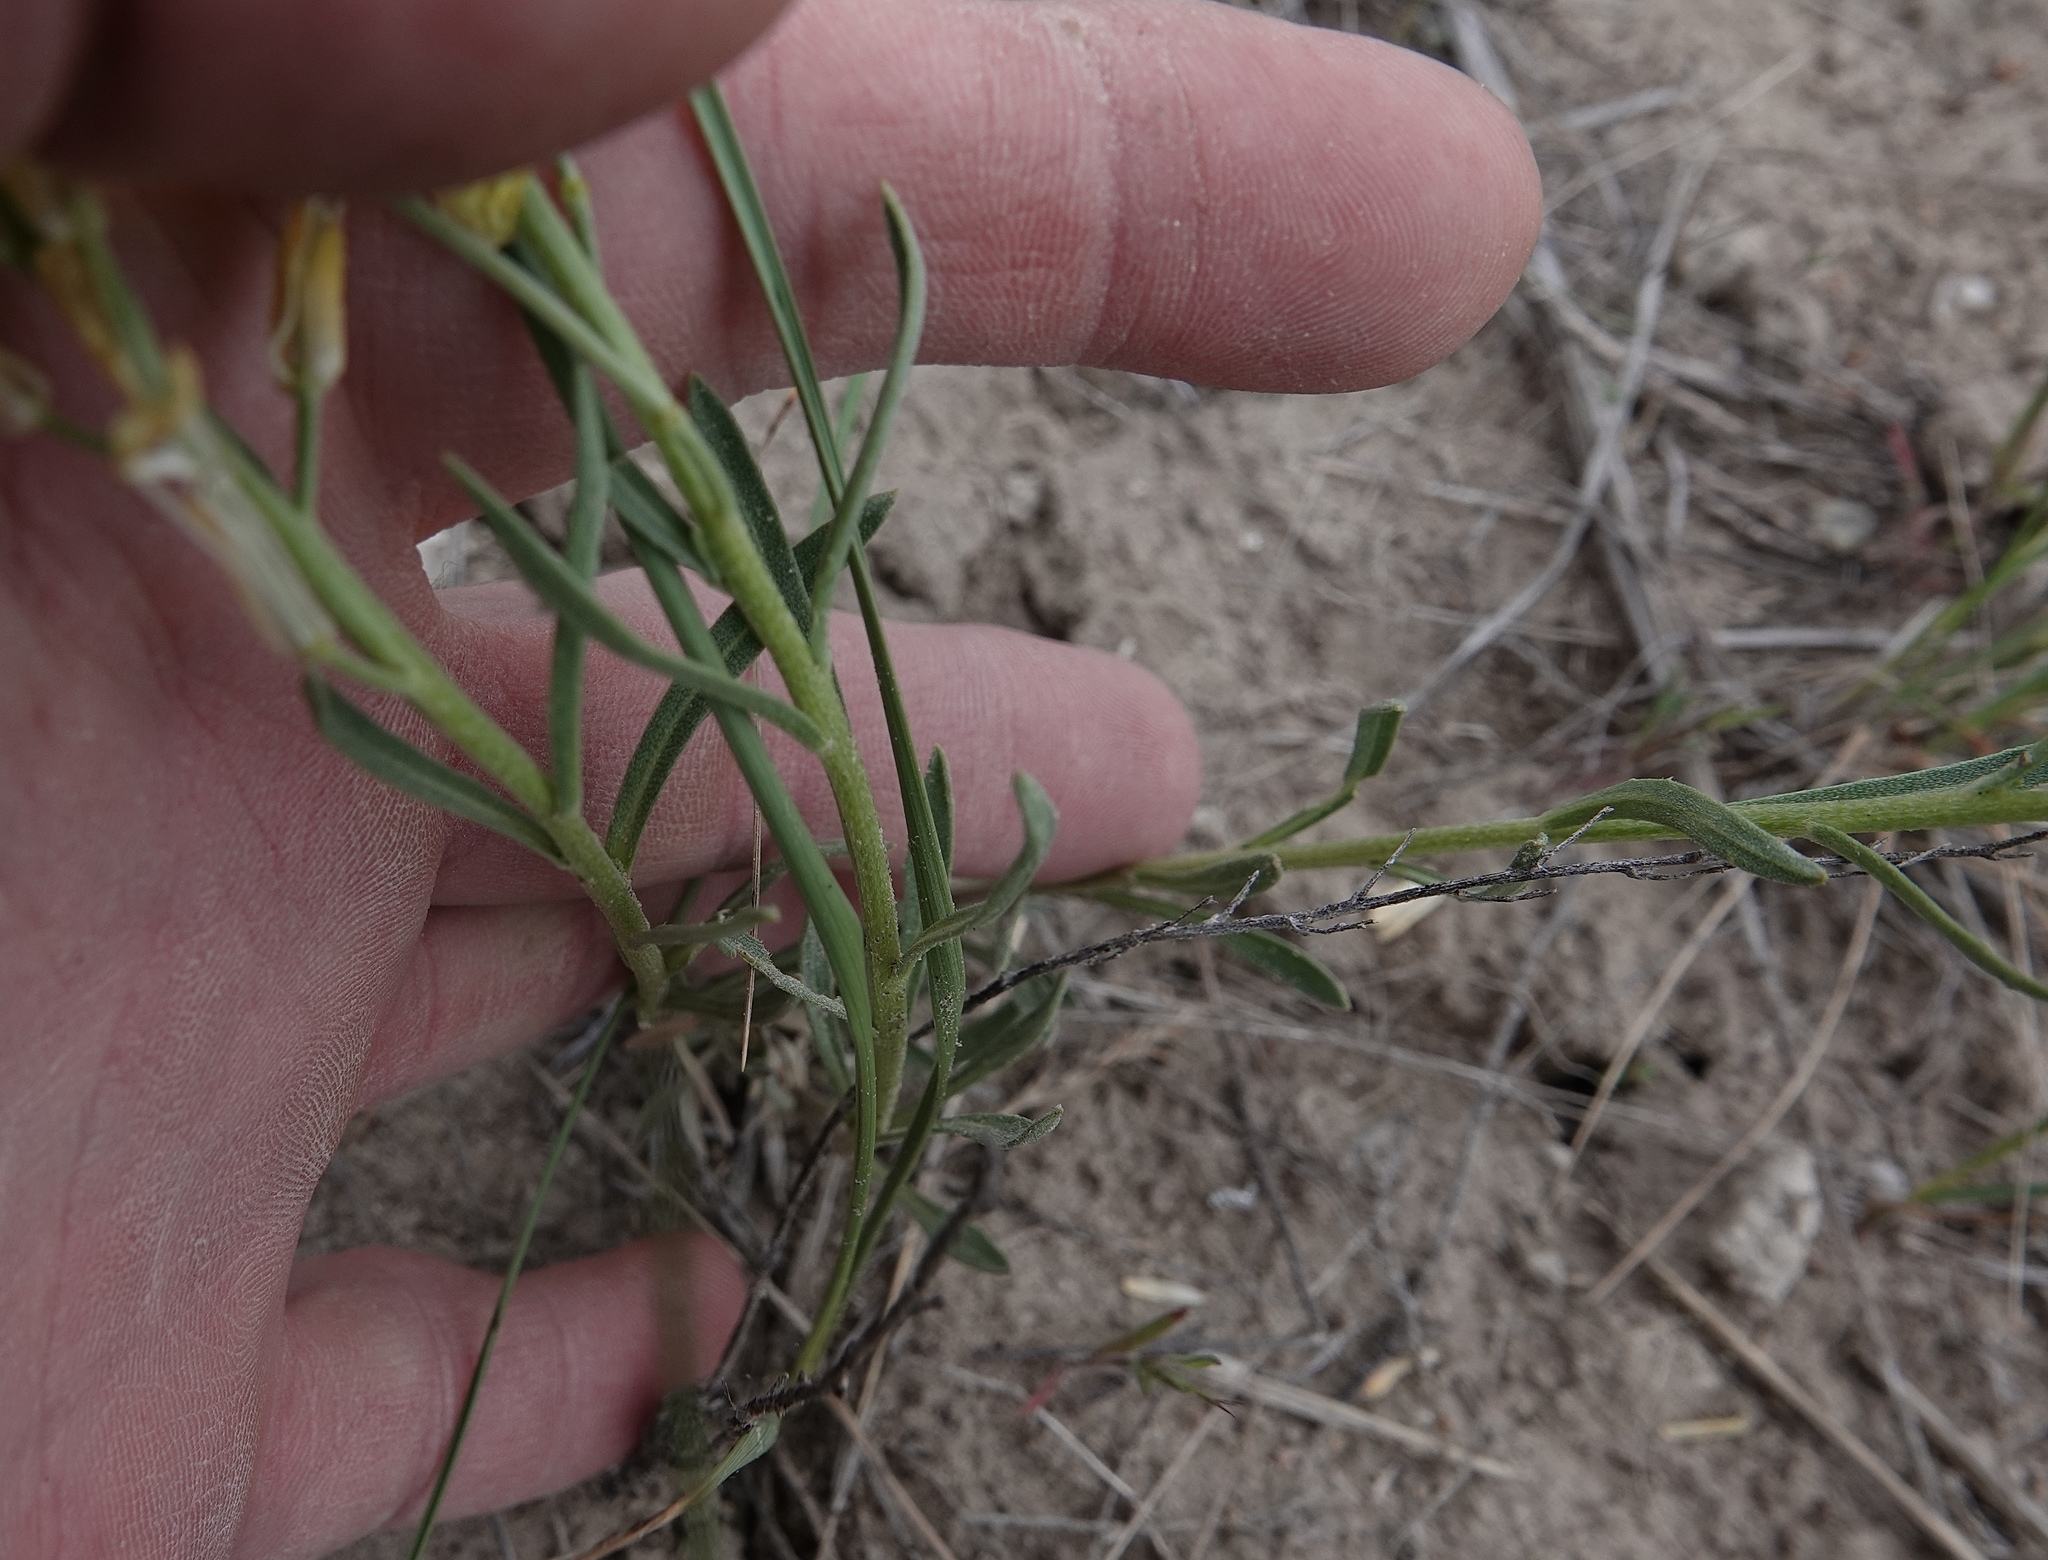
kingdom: Plantae
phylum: Tracheophyta
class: Magnoliopsida
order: Brassicales
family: Brassicaceae
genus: Erysimum
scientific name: Erysimum asperum
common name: Western wallflower
